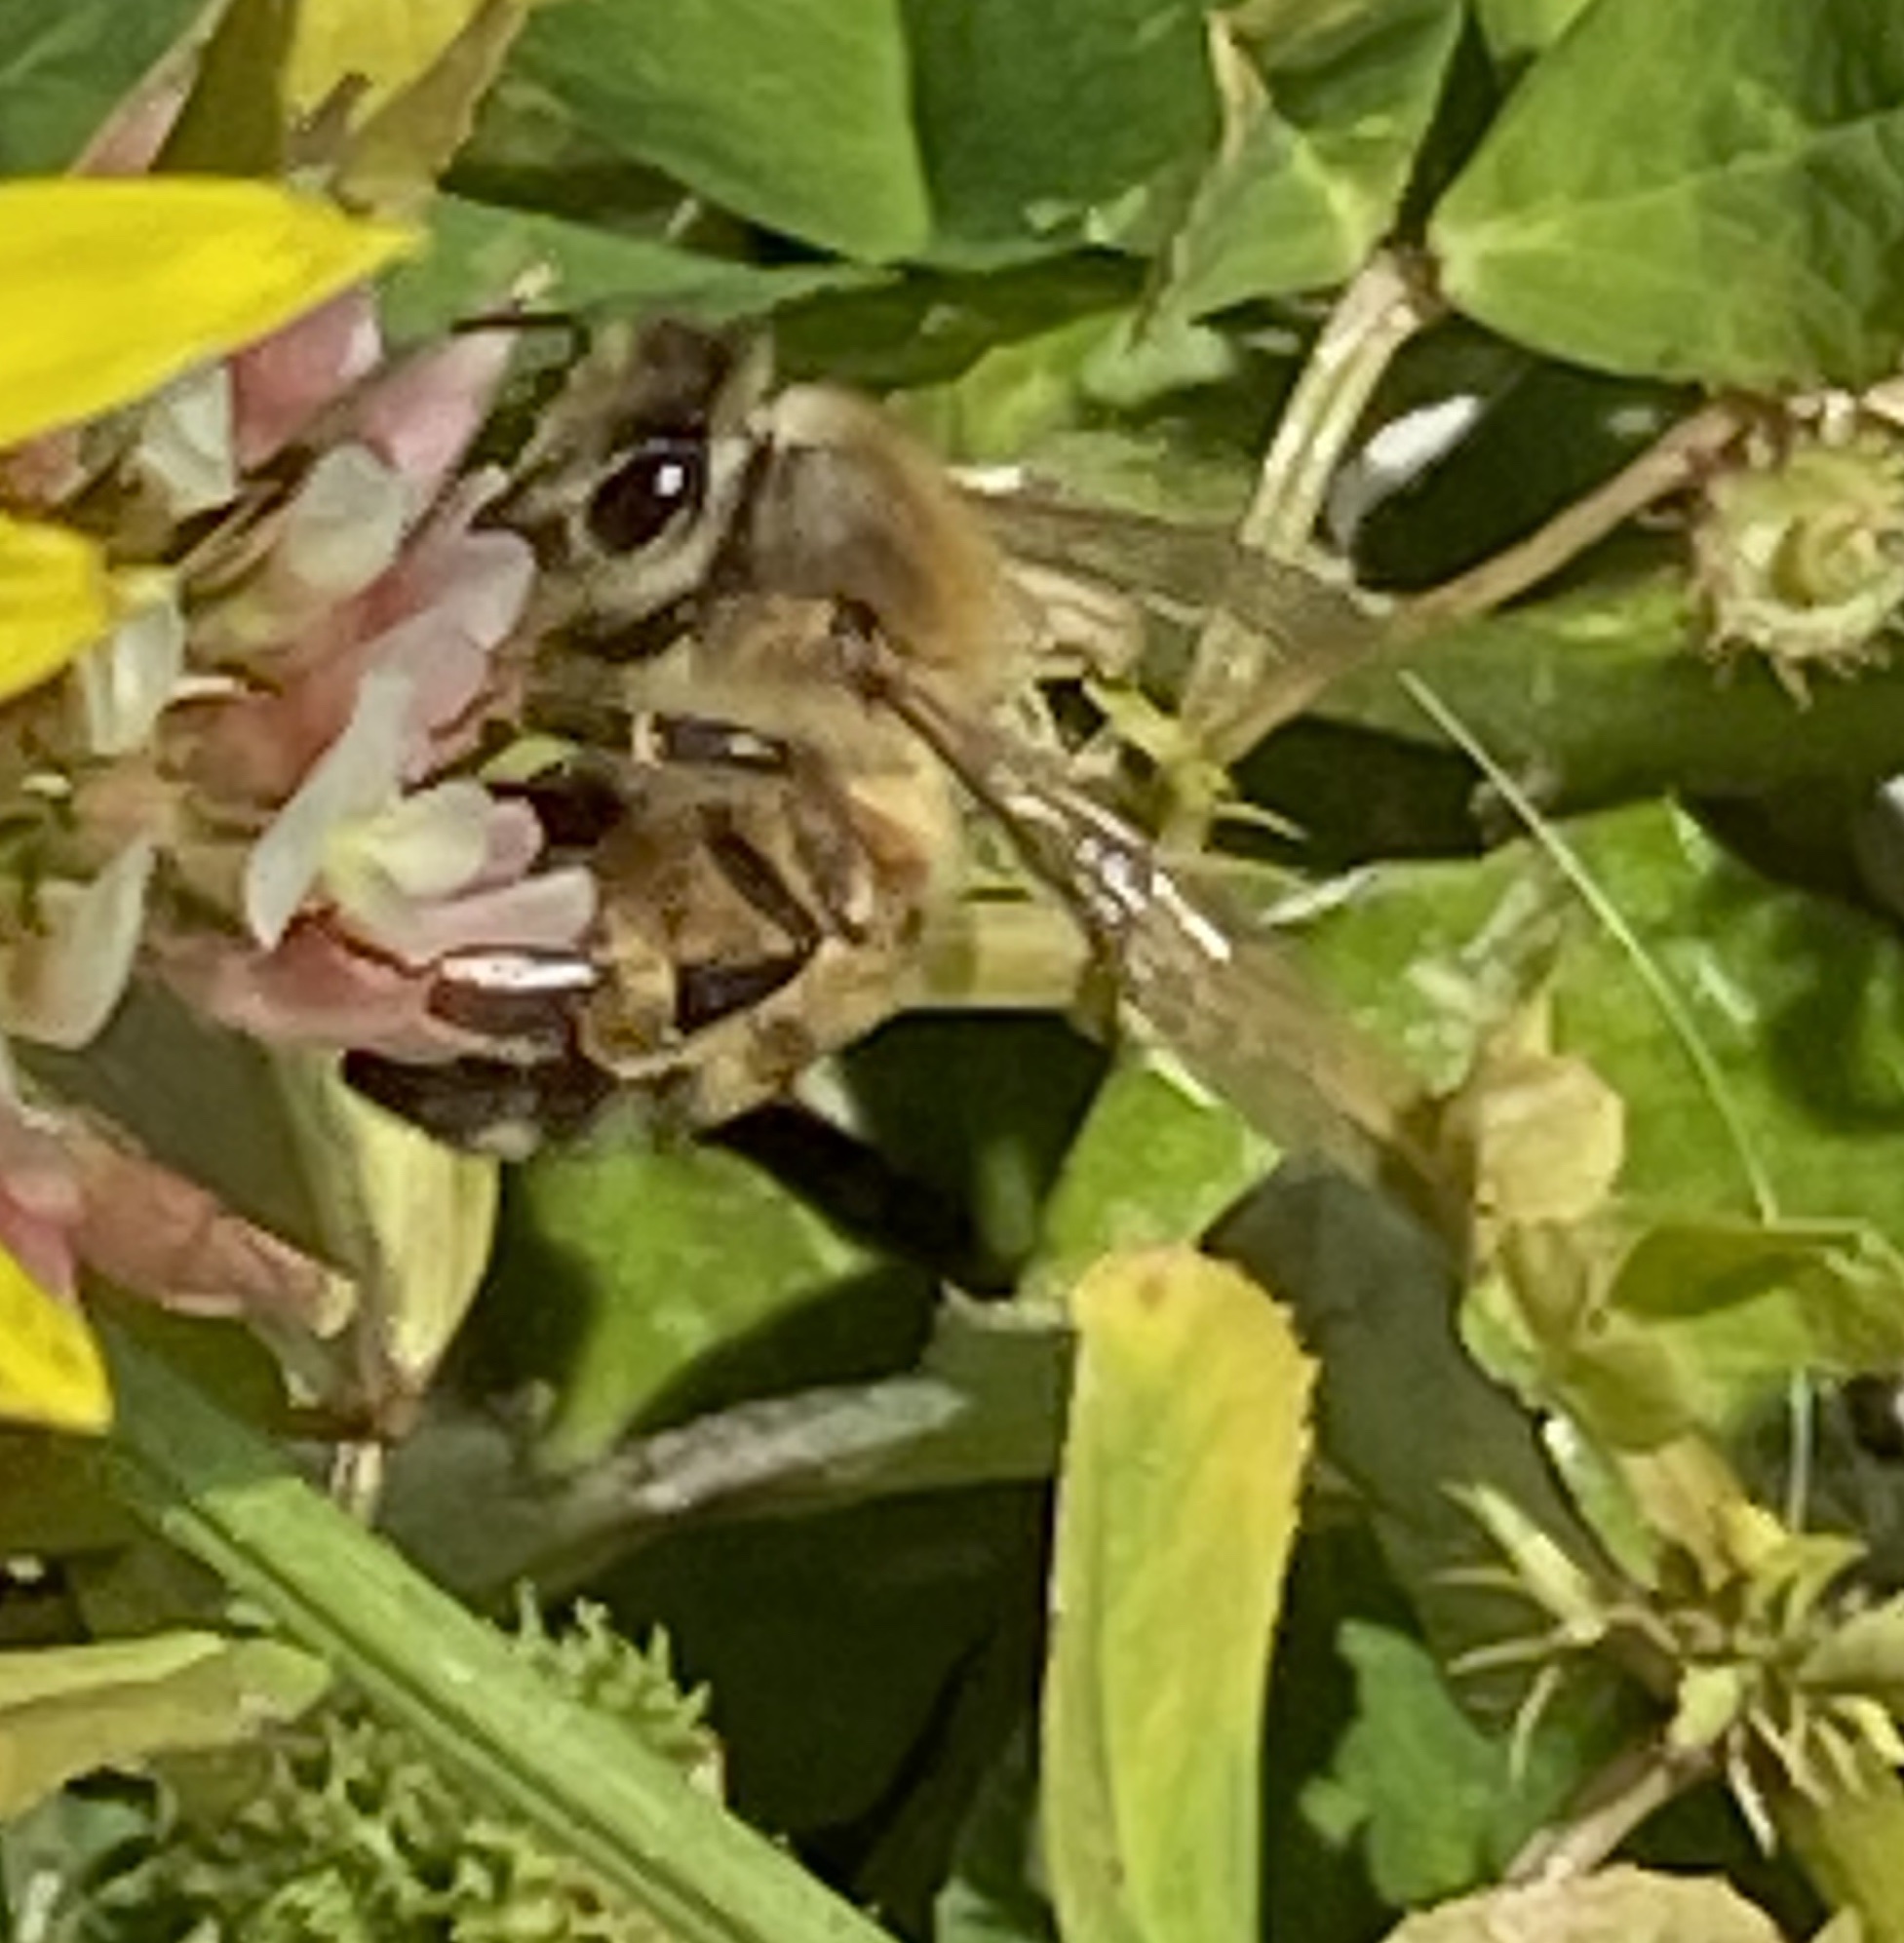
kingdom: Animalia
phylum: Arthropoda
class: Insecta
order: Hymenoptera
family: Apidae
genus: Apis
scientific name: Apis mellifera
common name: Honey bee
